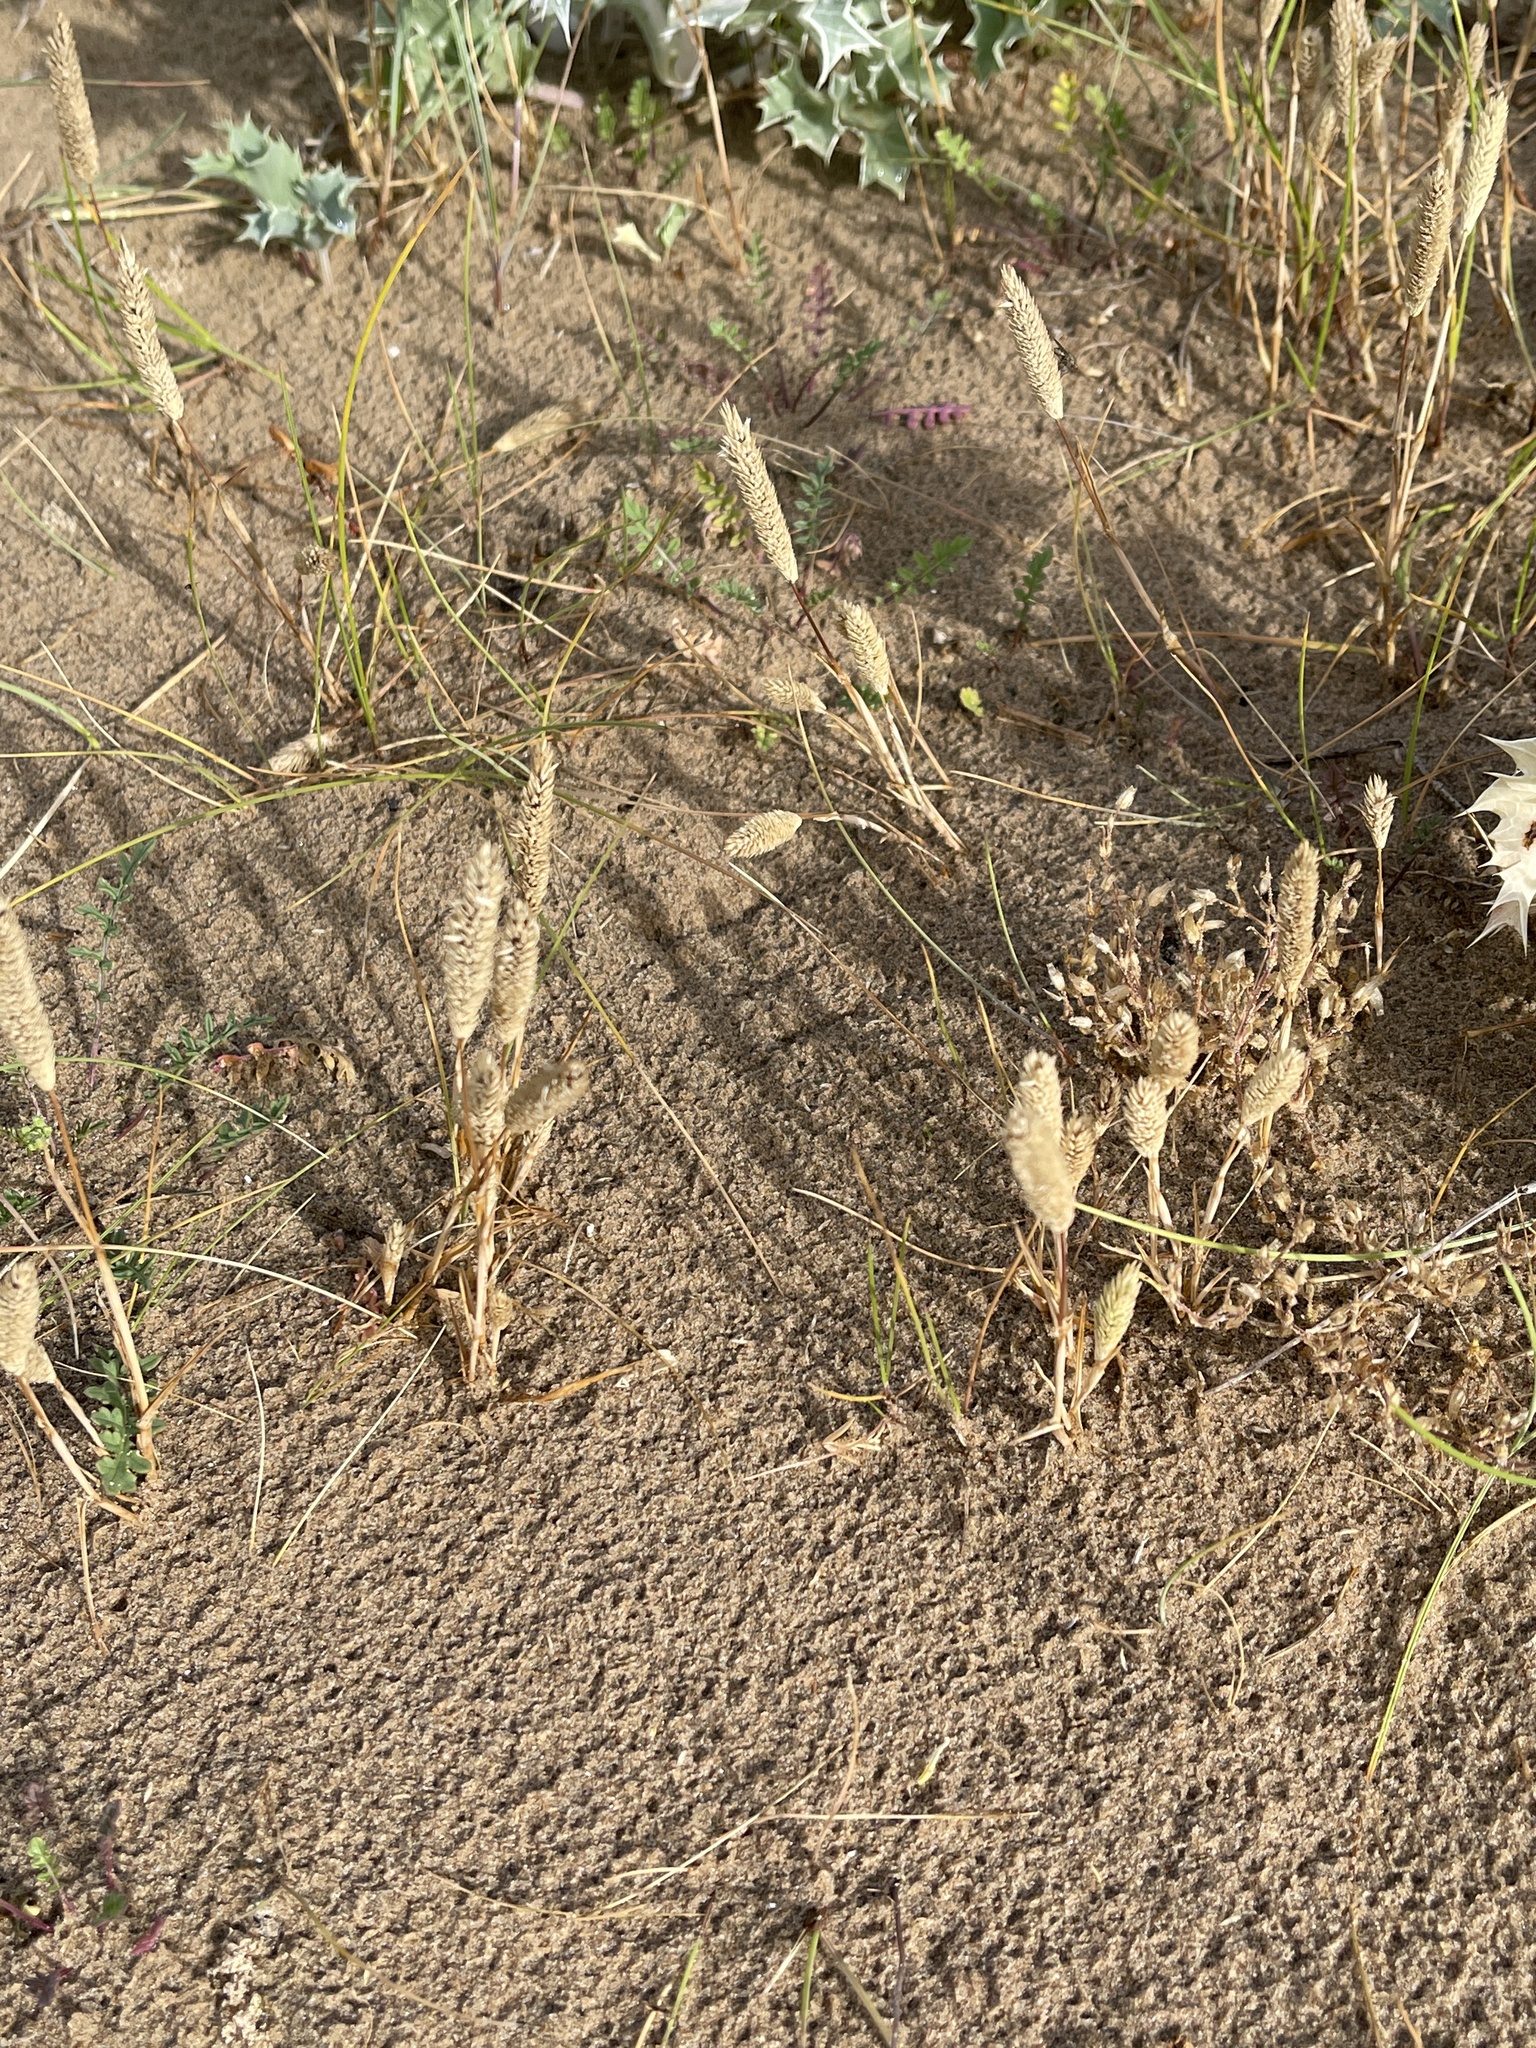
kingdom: Plantae
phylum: Tracheophyta
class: Liliopsida
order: Poales
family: Poaceae
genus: Phleum
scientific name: Phleum arenarium
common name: Sand cat's-tail
